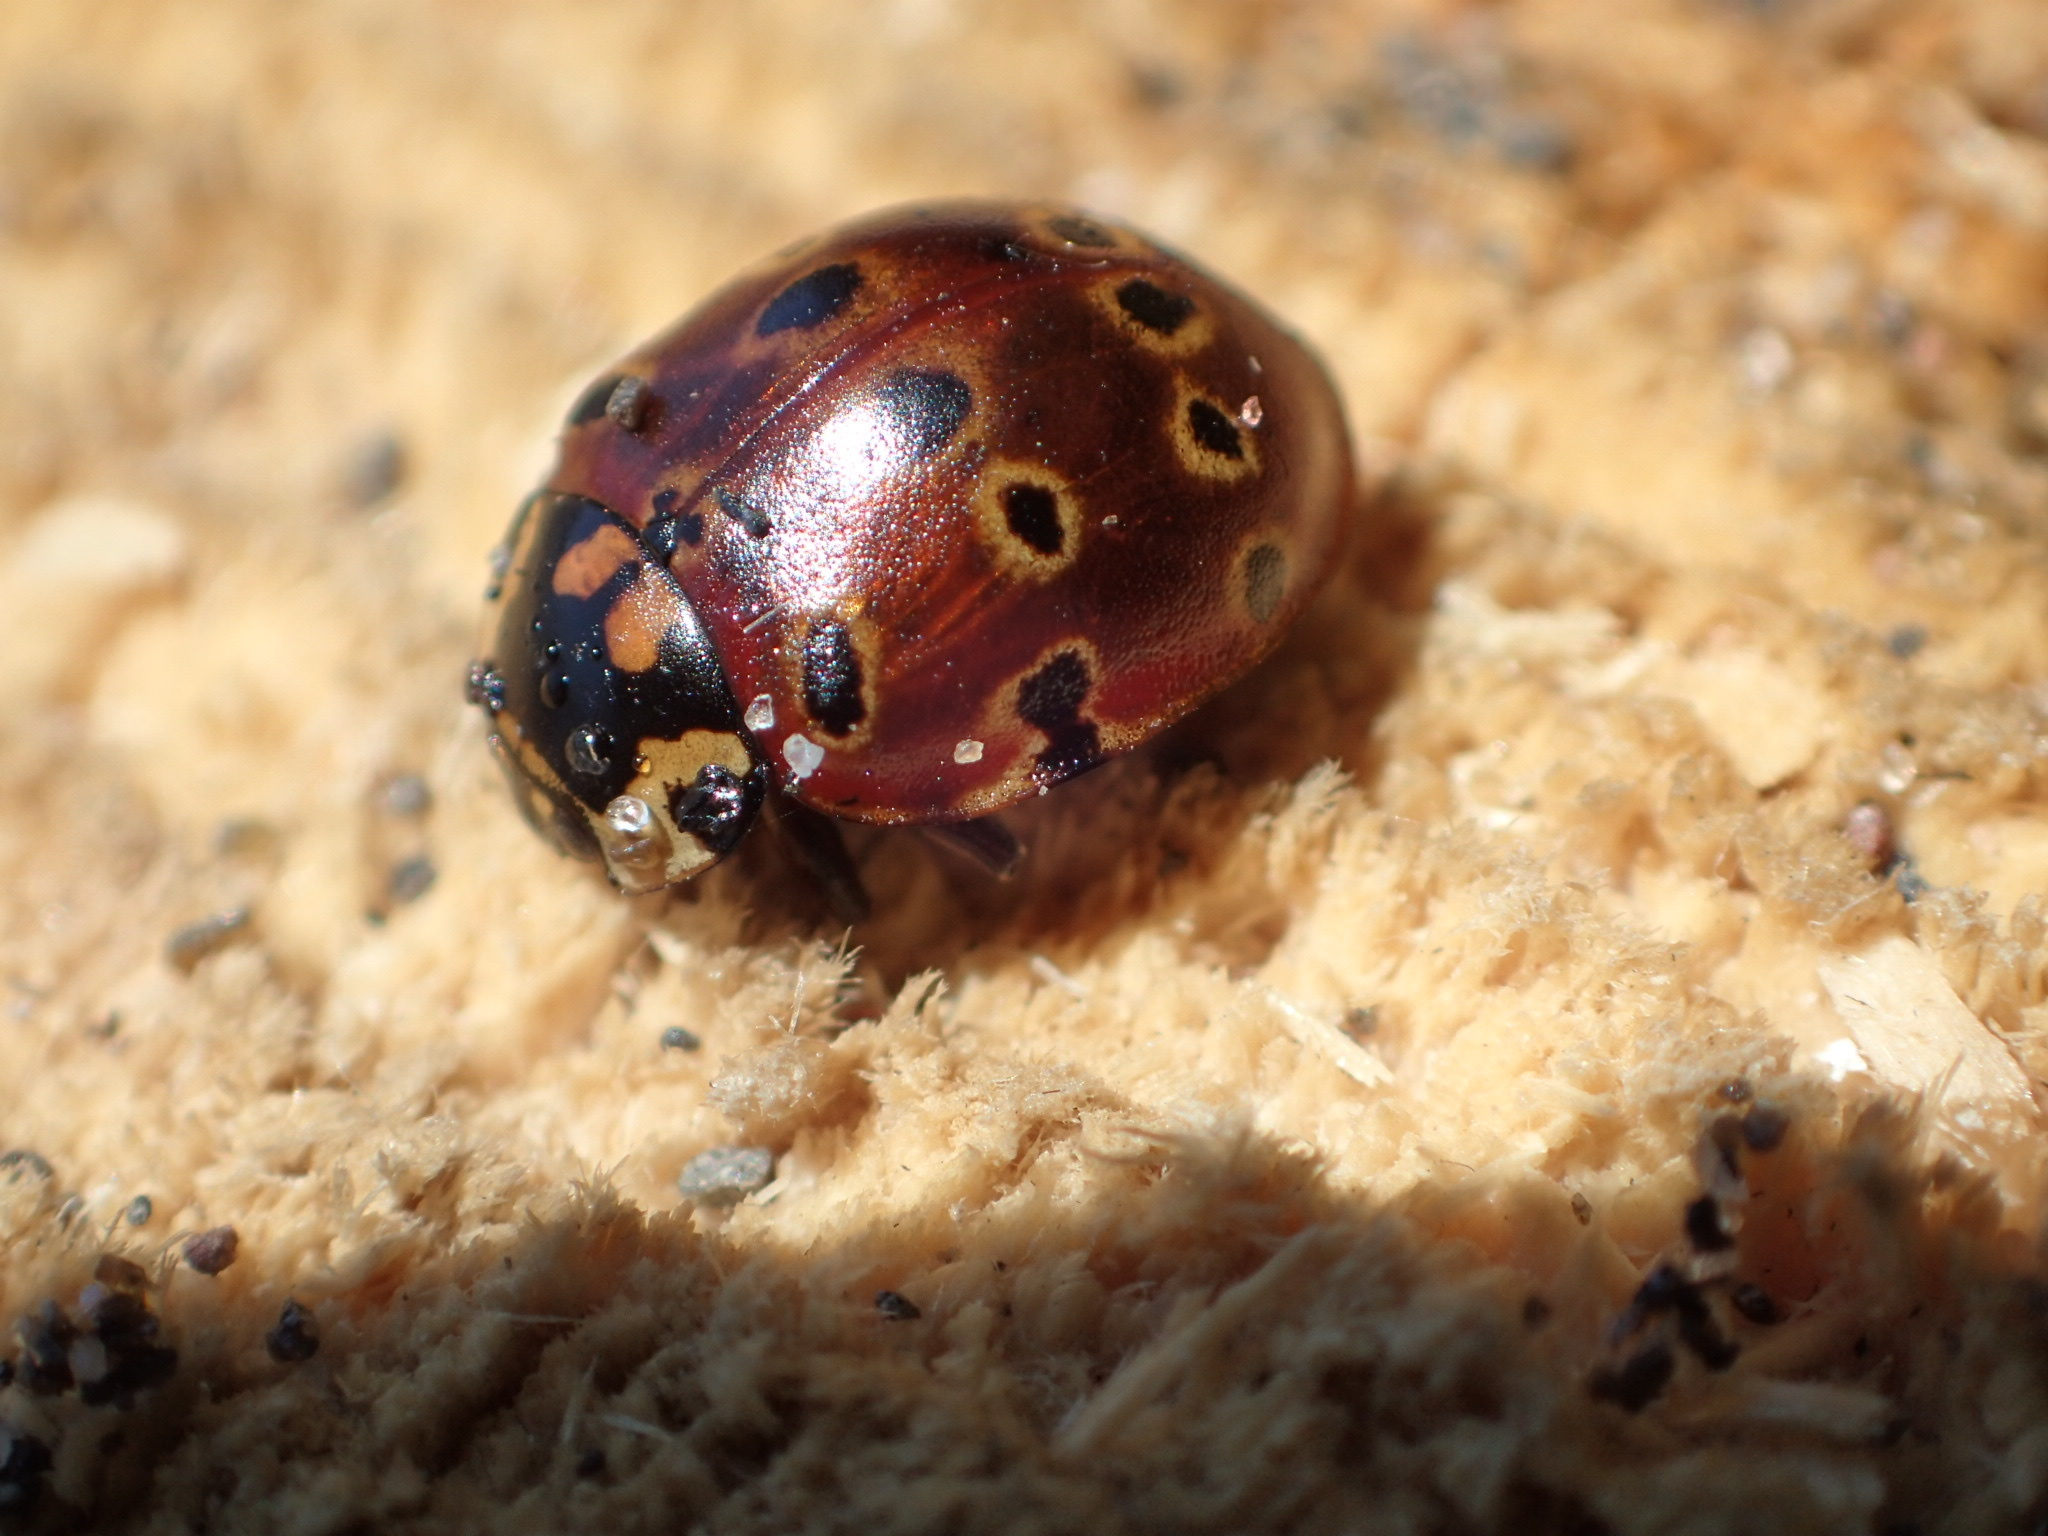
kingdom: Animalia
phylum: Arthropoda
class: Insecta
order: Coleoptera
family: Coccinellidae
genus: Anatis
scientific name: Anatis mali
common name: Eye-spotted lady beetle
